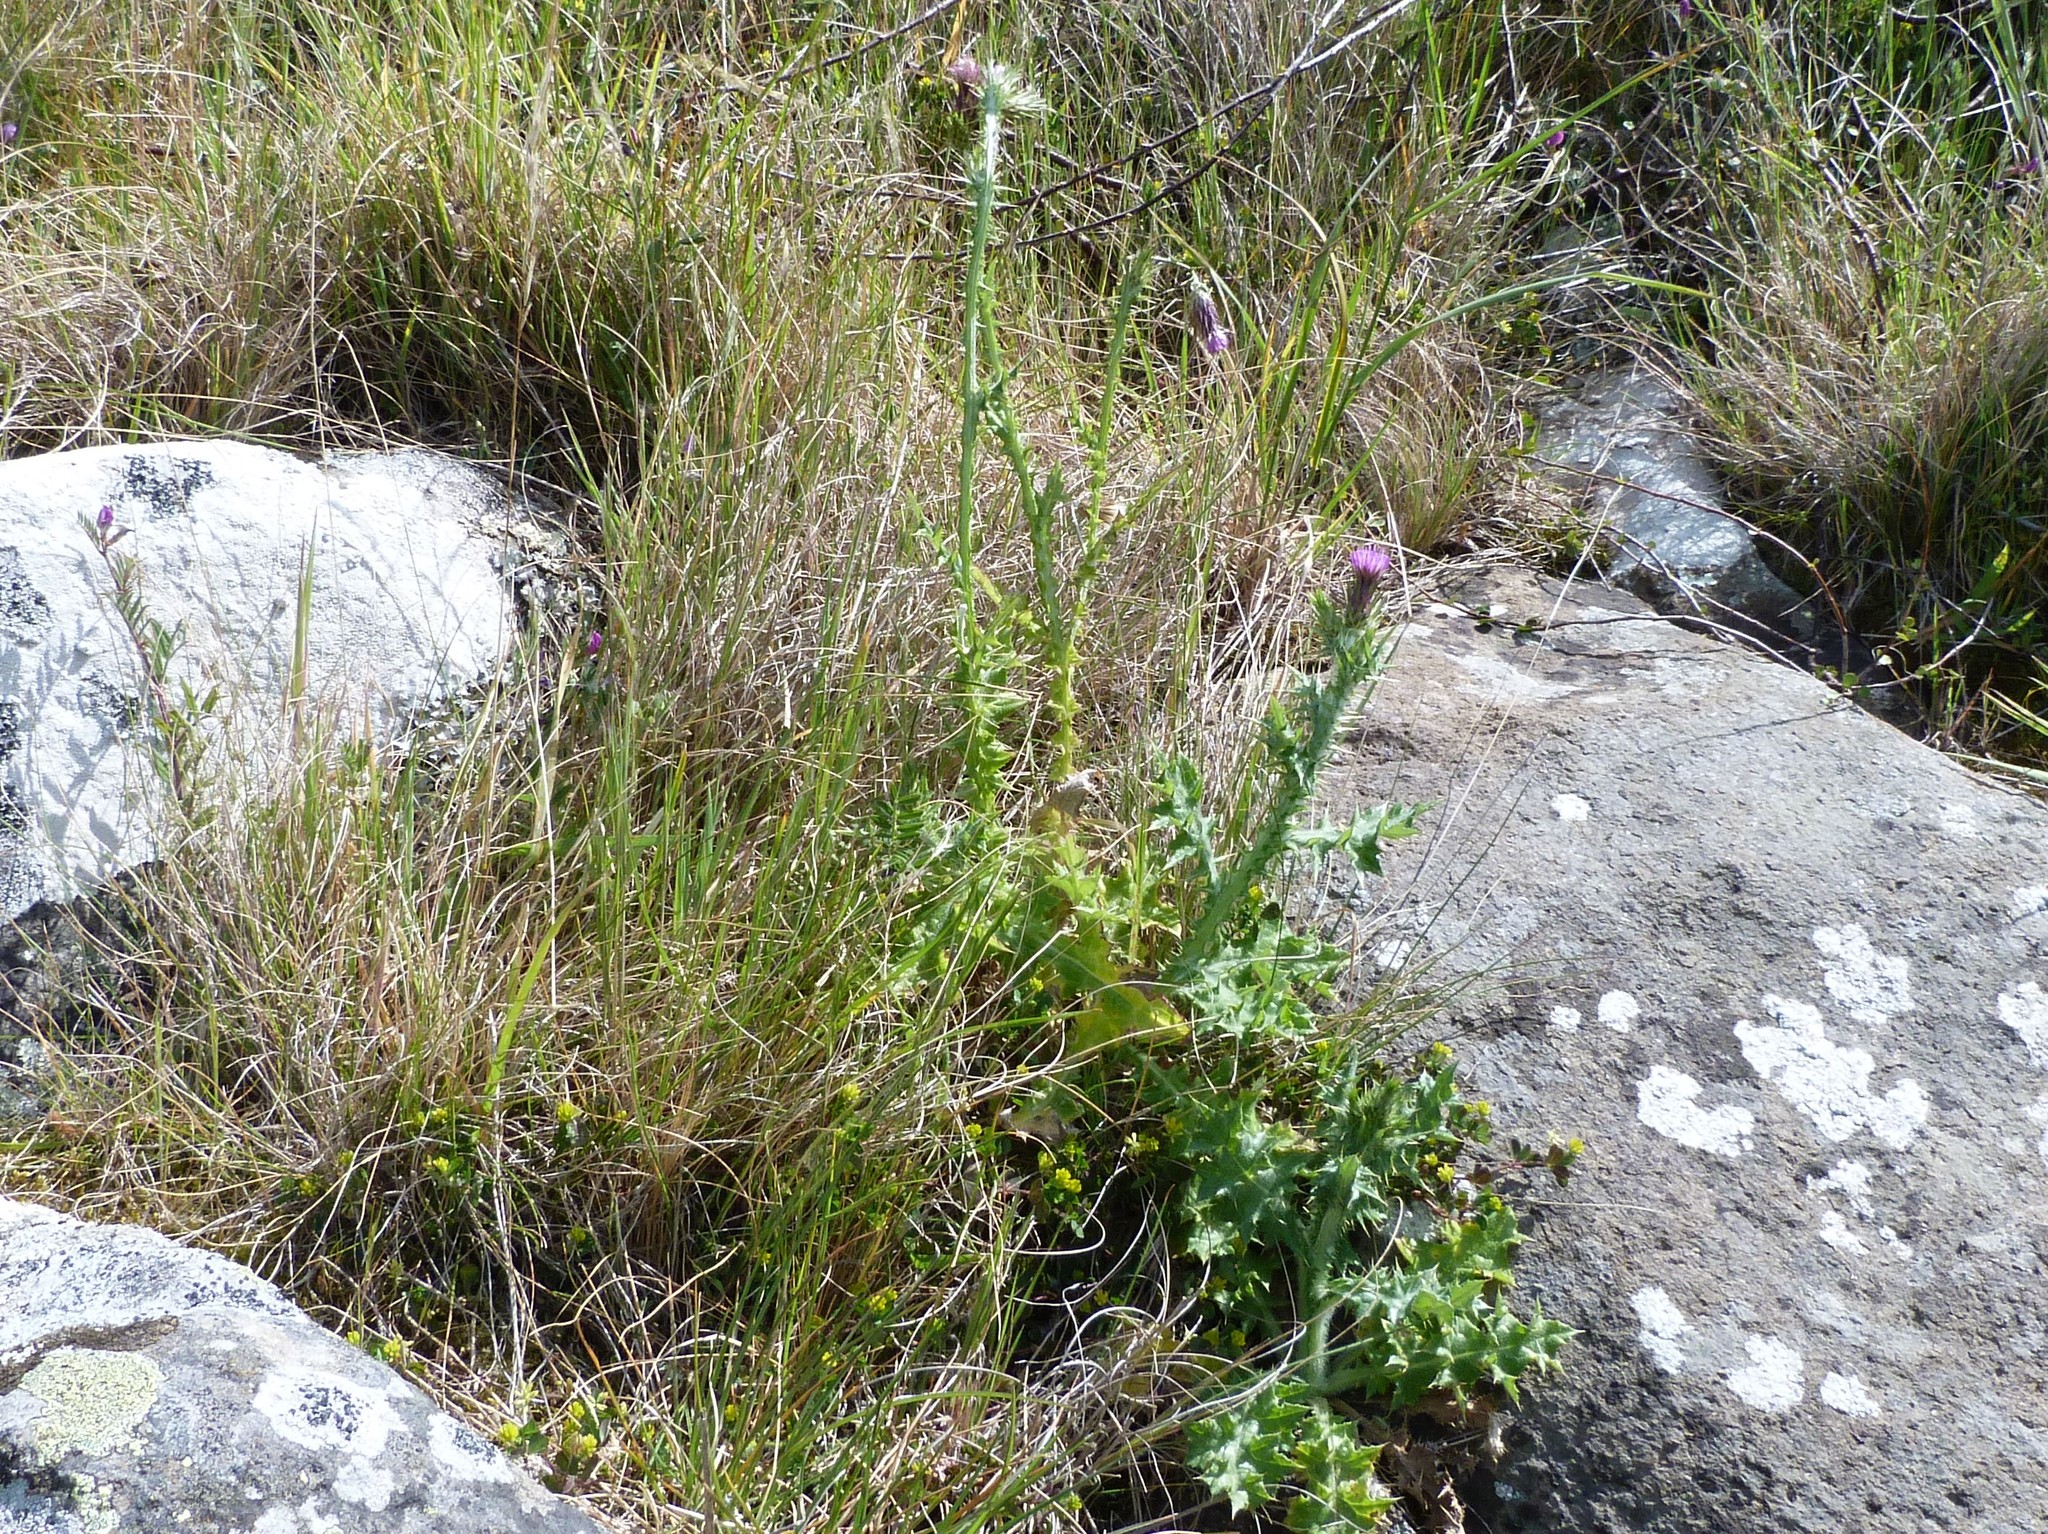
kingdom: Plantae
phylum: Tracheophyta
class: Magnoliopsida
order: Asterales
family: Asteraceae
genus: Carduus
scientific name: Carduus tenuiflorus
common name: Slender thistle
